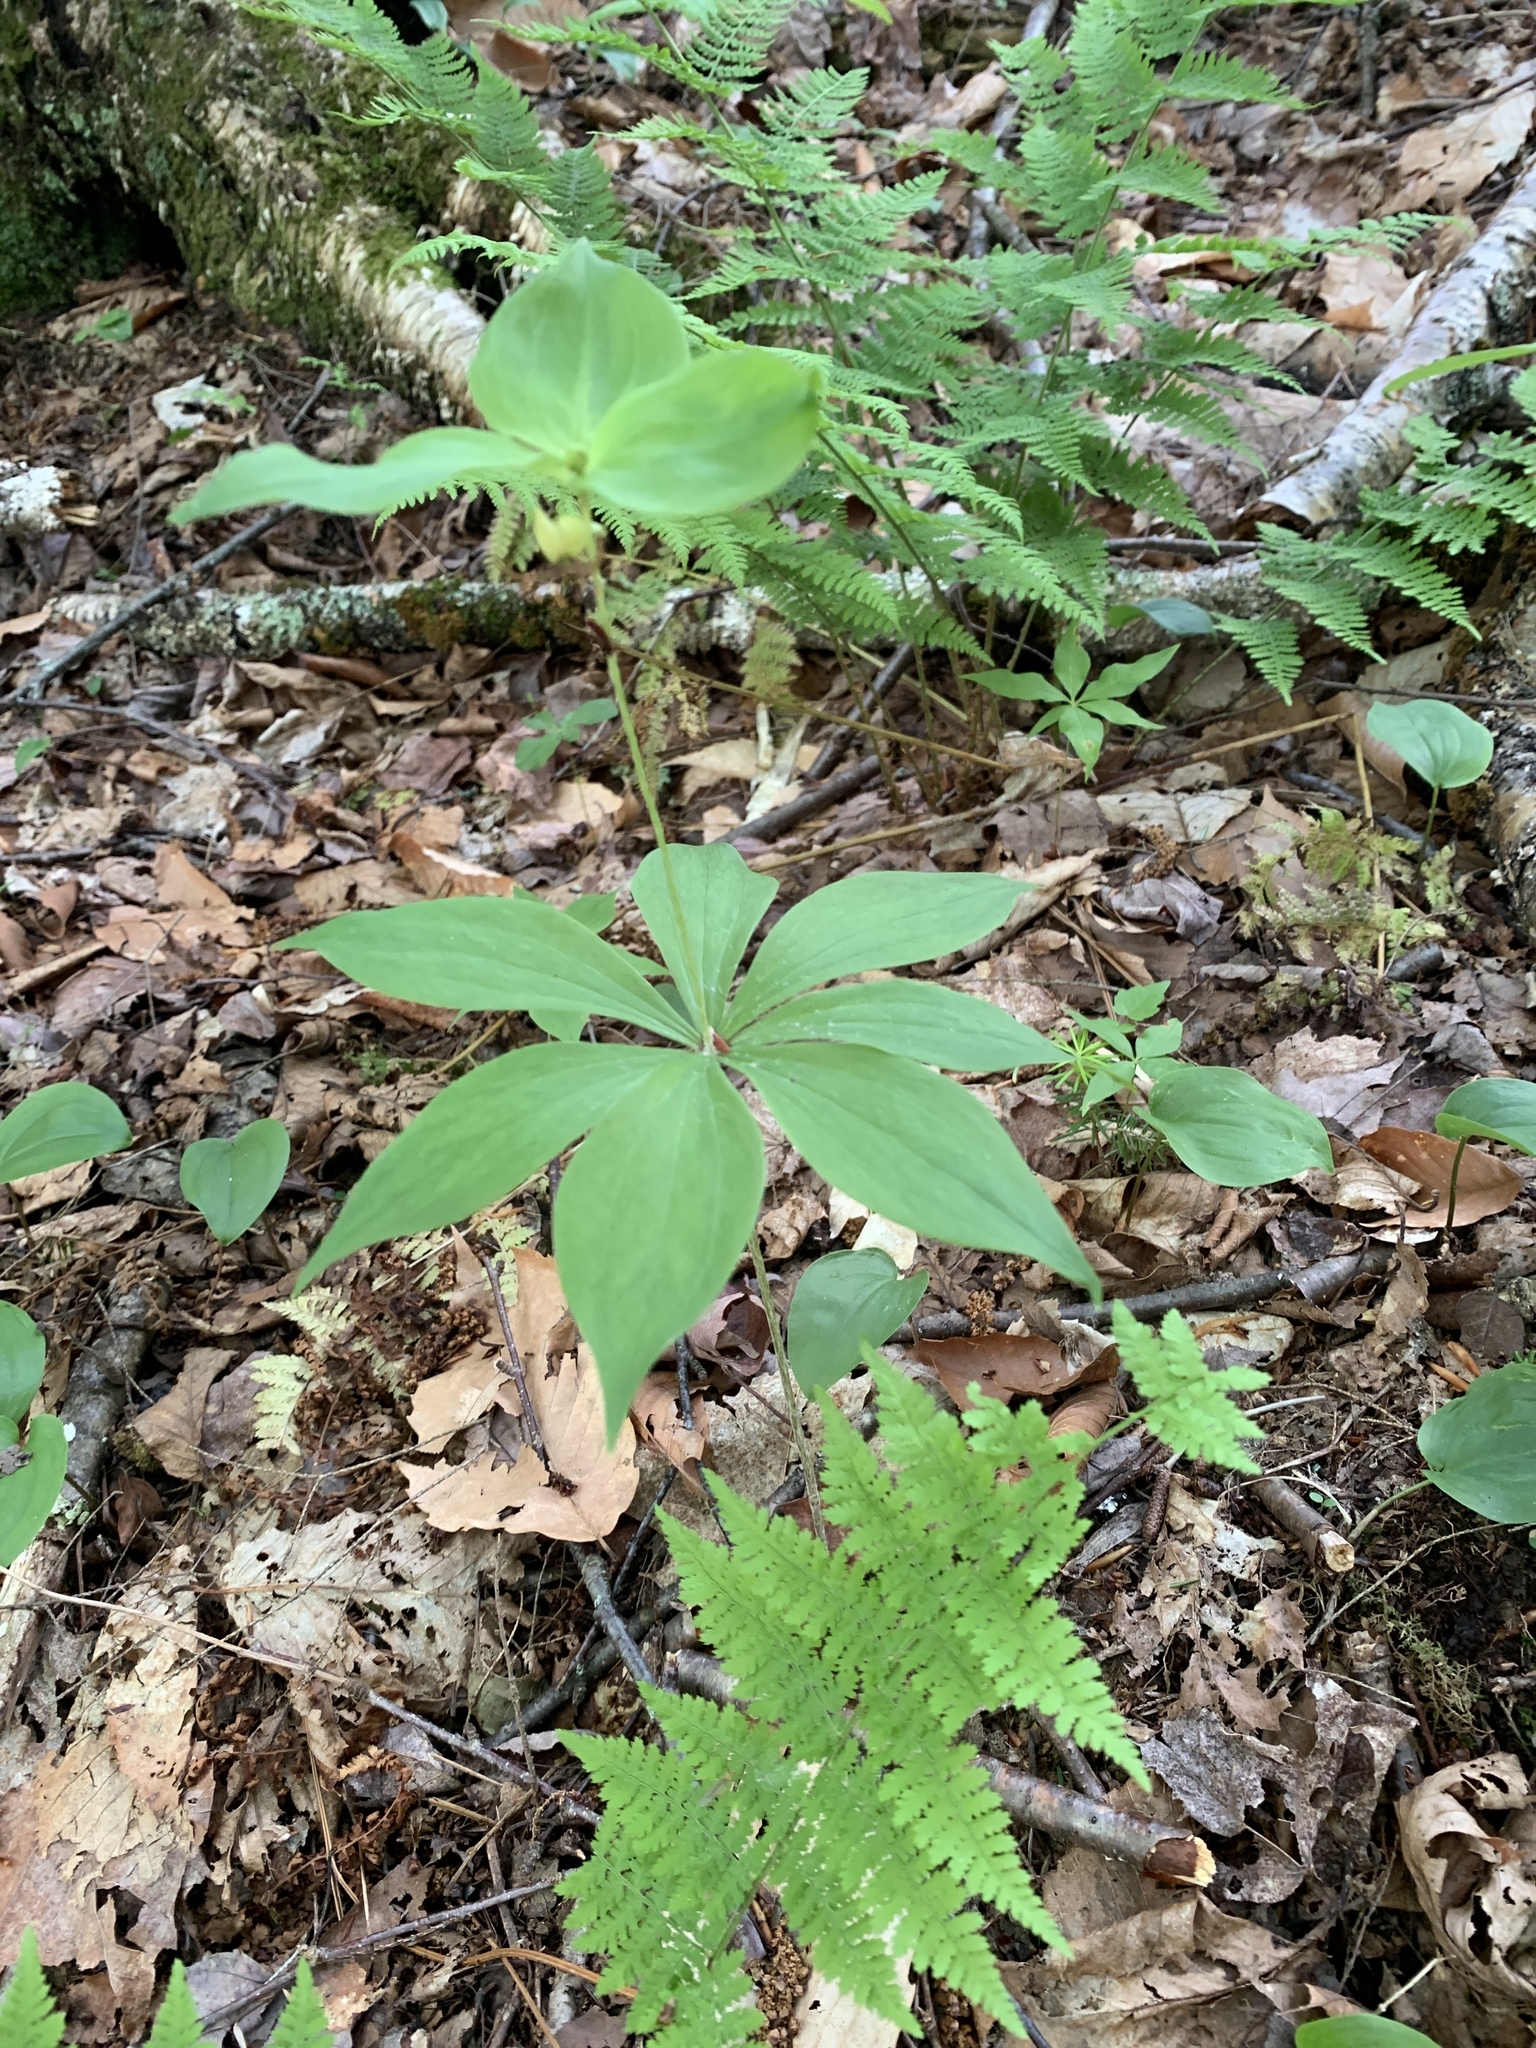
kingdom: Plantae
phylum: Tracheophyta
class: Liliopsida
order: Liliales
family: Liliaceae
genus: Medeola
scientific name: Medeola virginiana
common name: Indian cucumber-root
